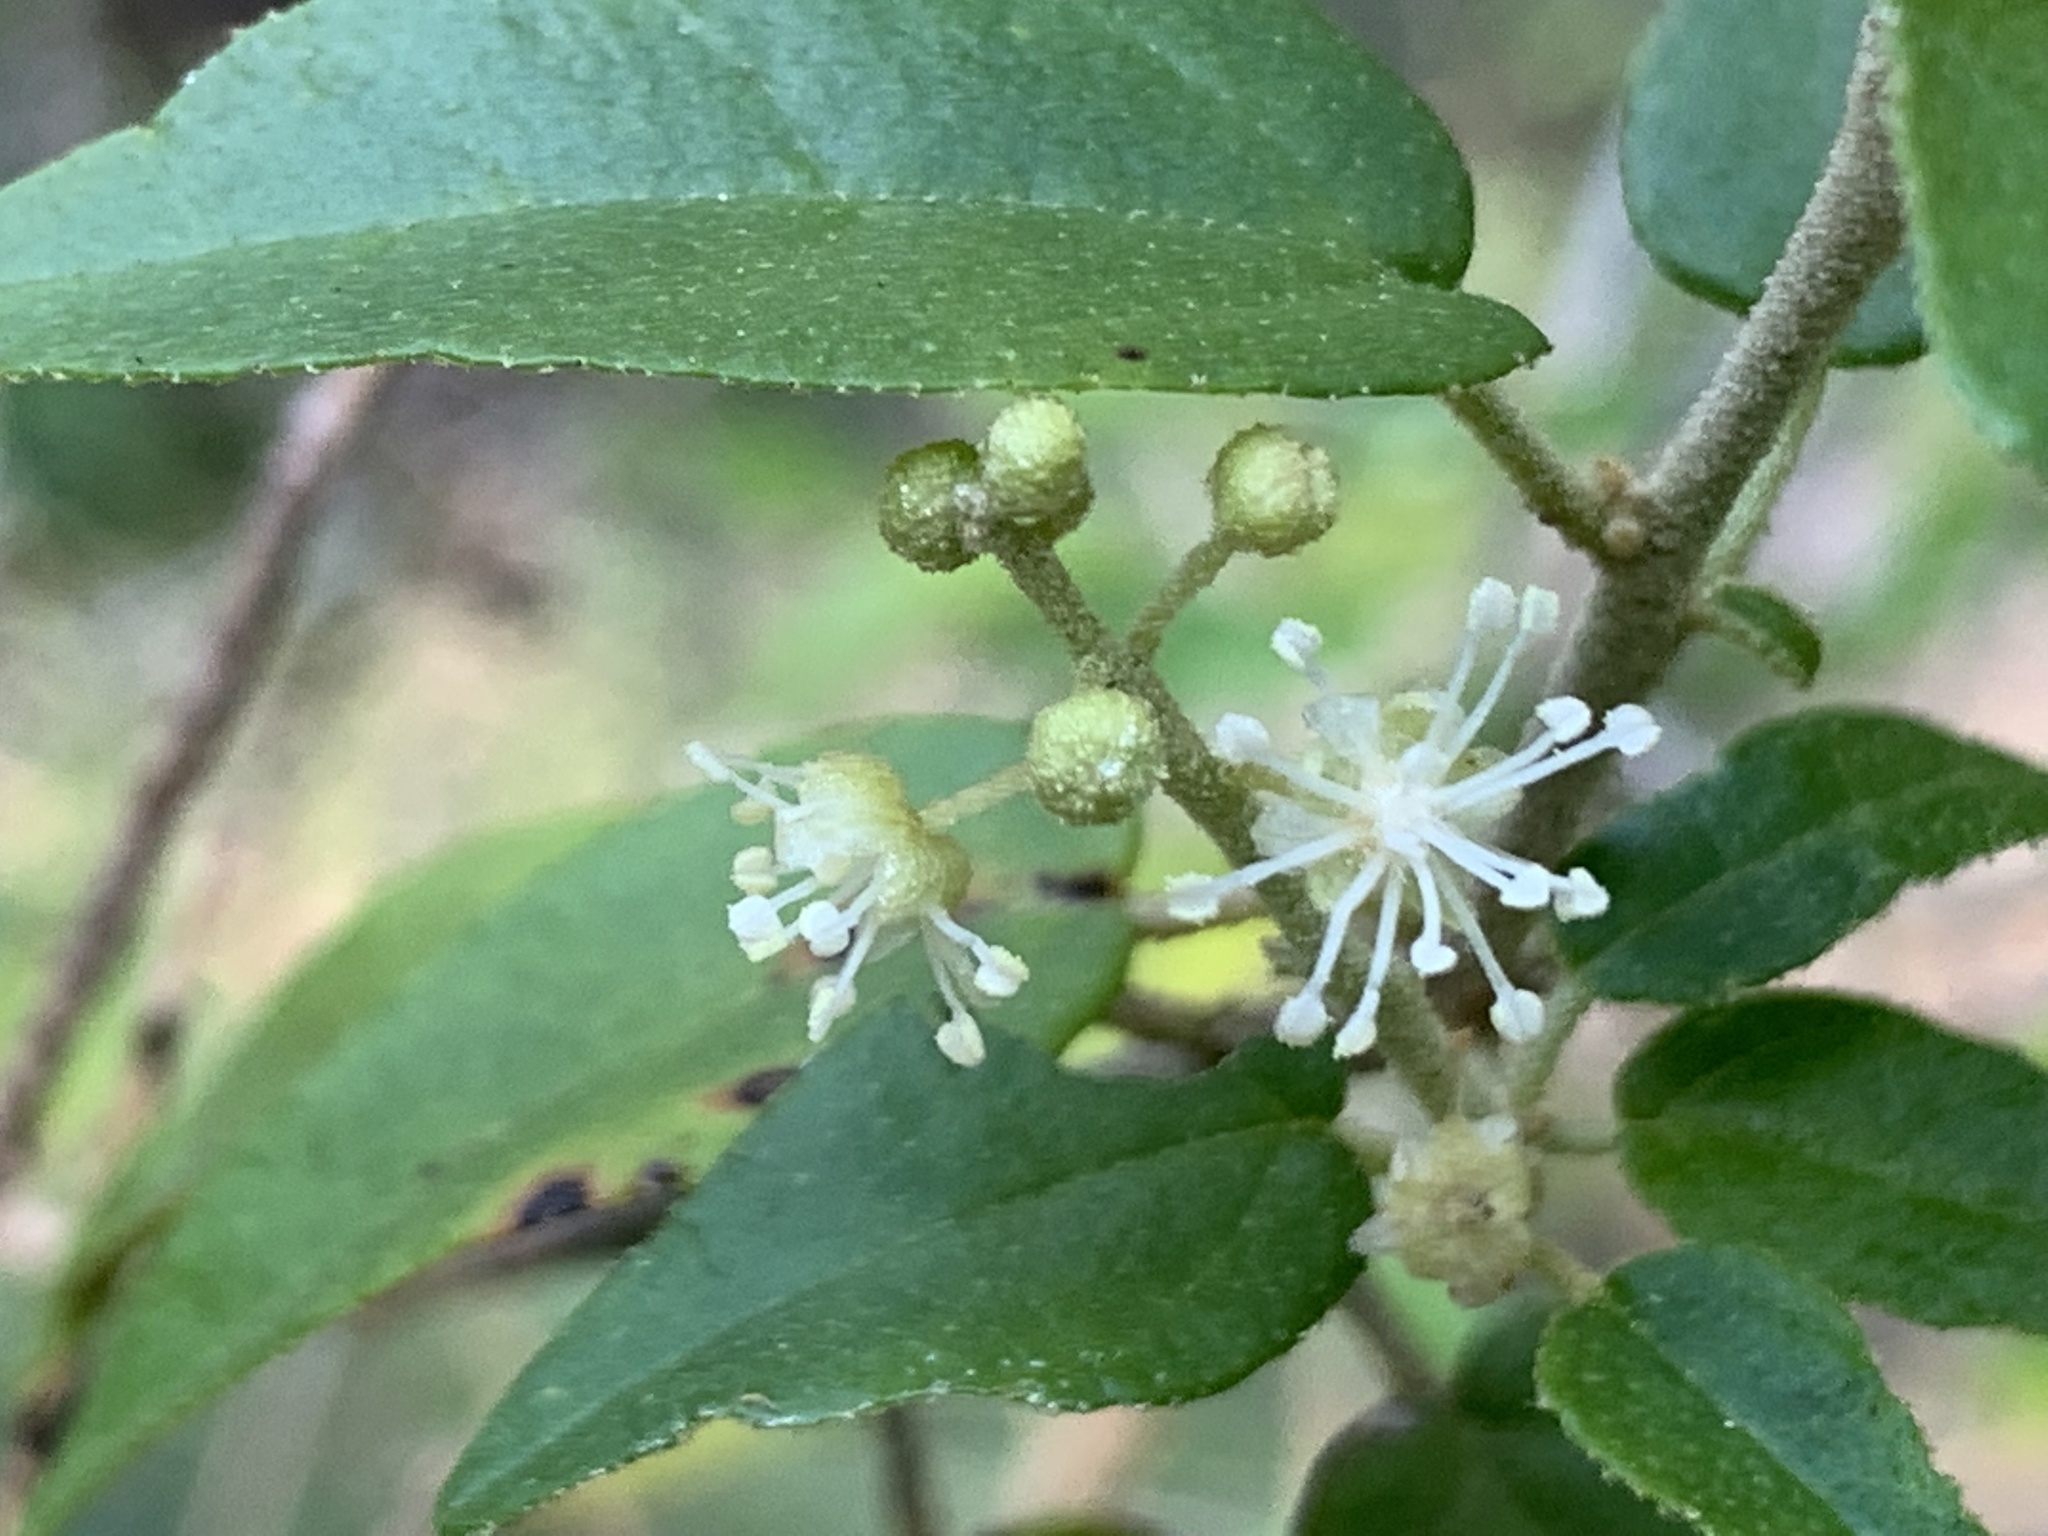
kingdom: Plantae
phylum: Tracheophyta
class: Magnoliopsida
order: Malpighiales
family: Euphorbiaceae
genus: Croton
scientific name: Croton fruticulosus
